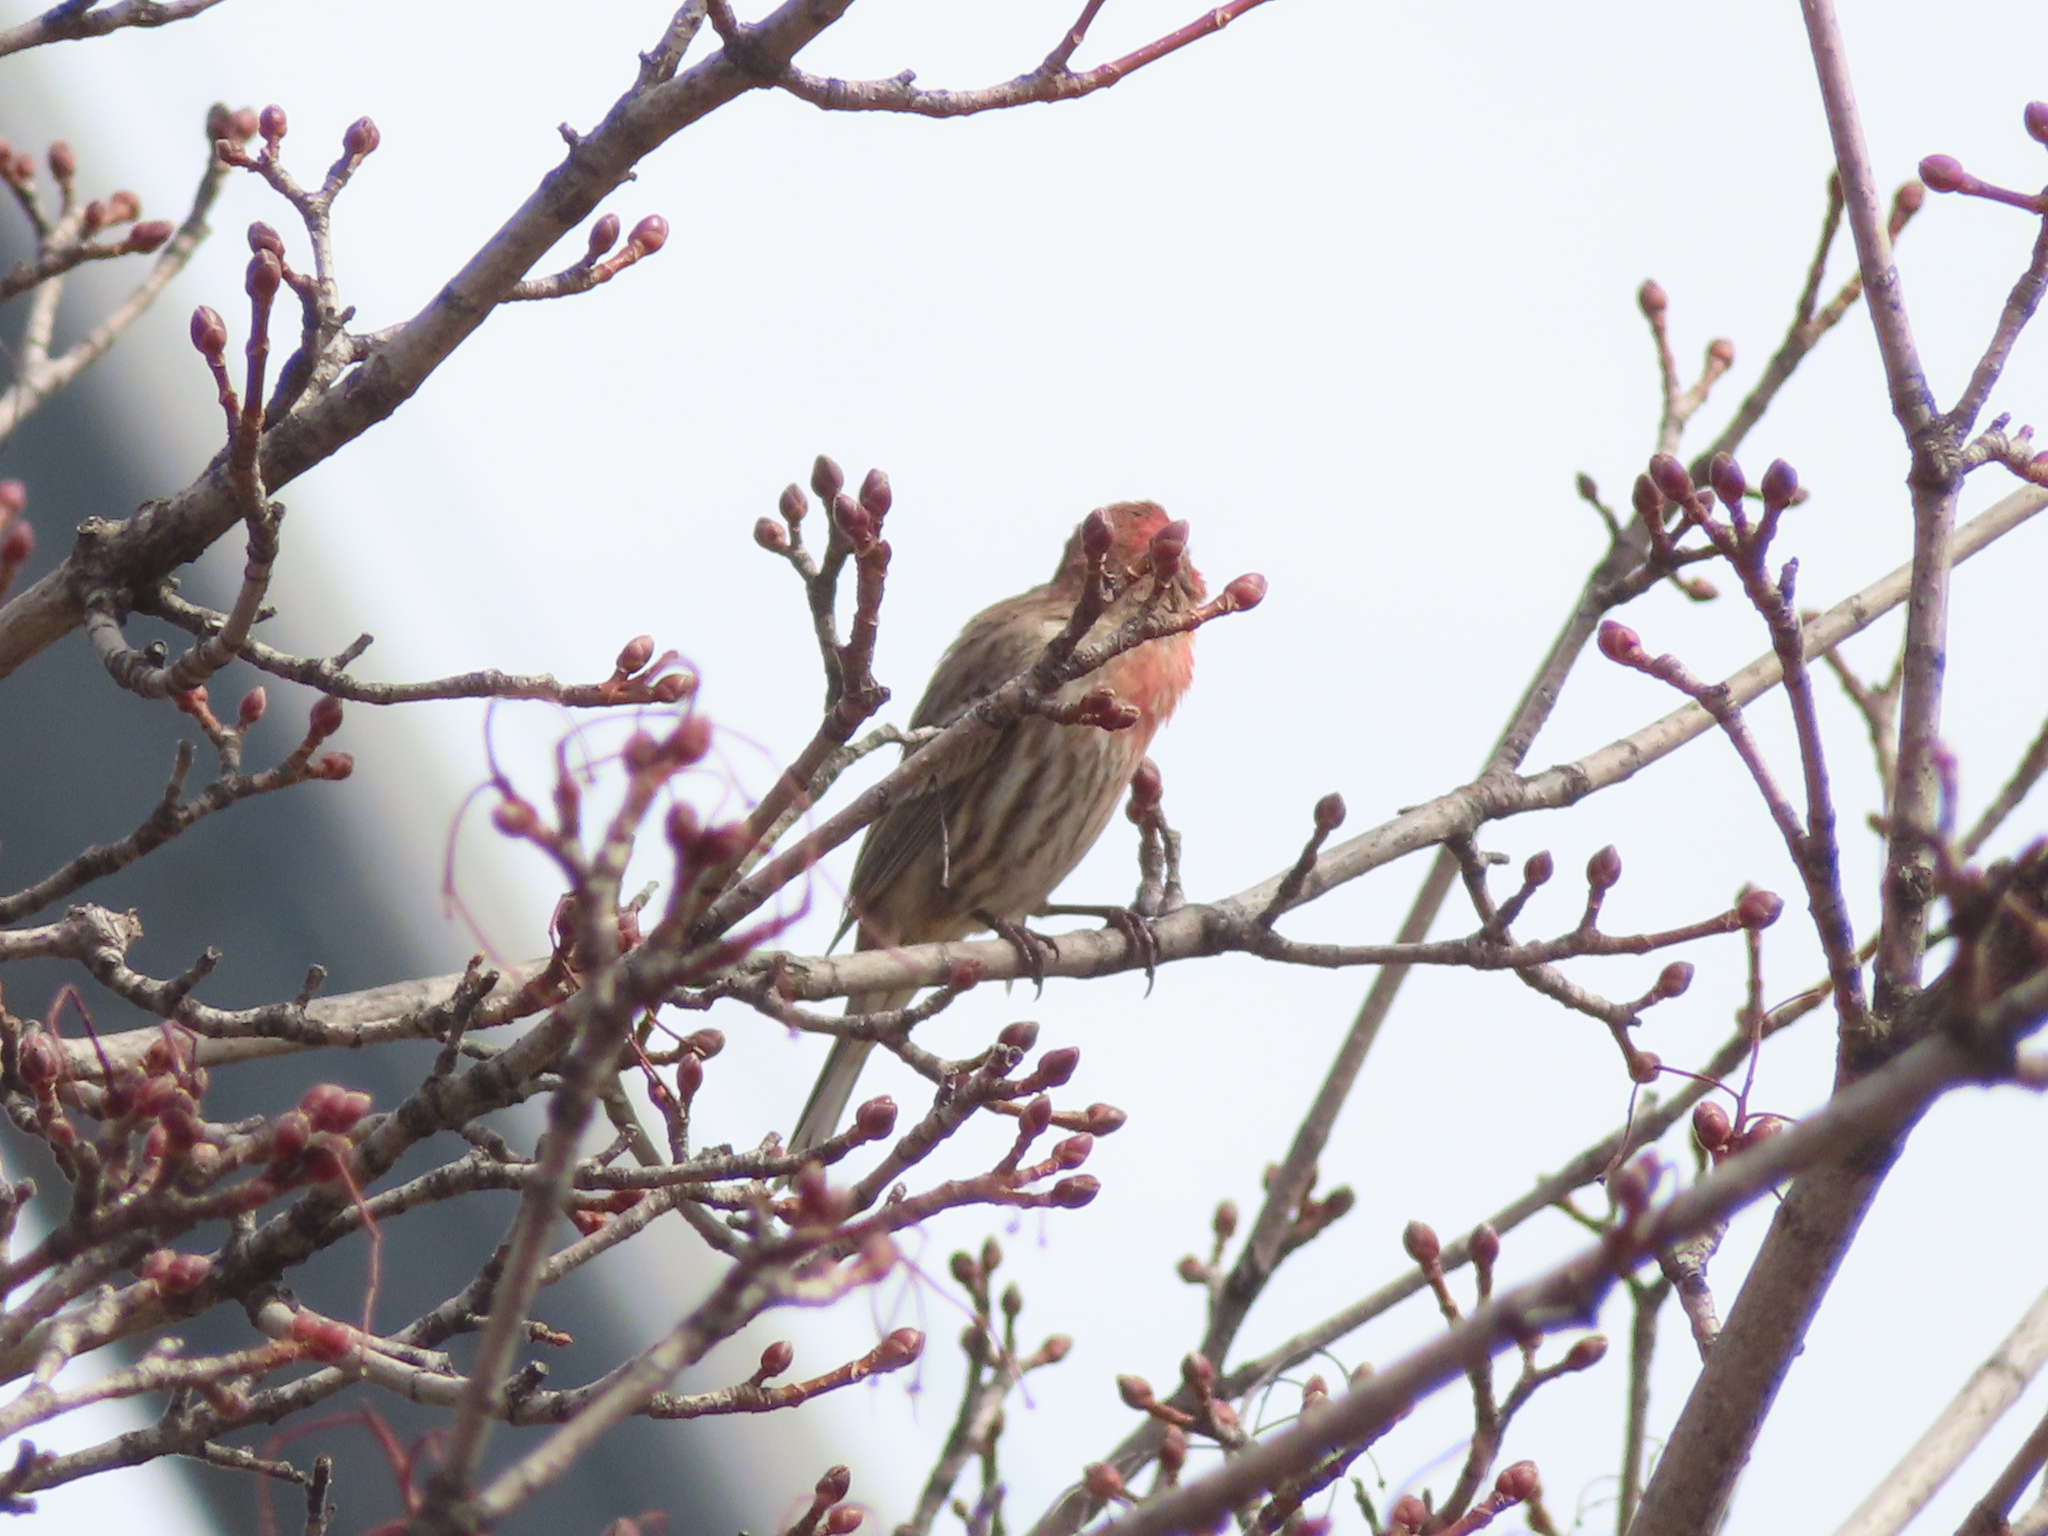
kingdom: Animalia
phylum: Chordata
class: Aves
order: Passeriformes
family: Fringillidae
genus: Haemorhous
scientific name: Haemorhous mexicanus
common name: House finch
